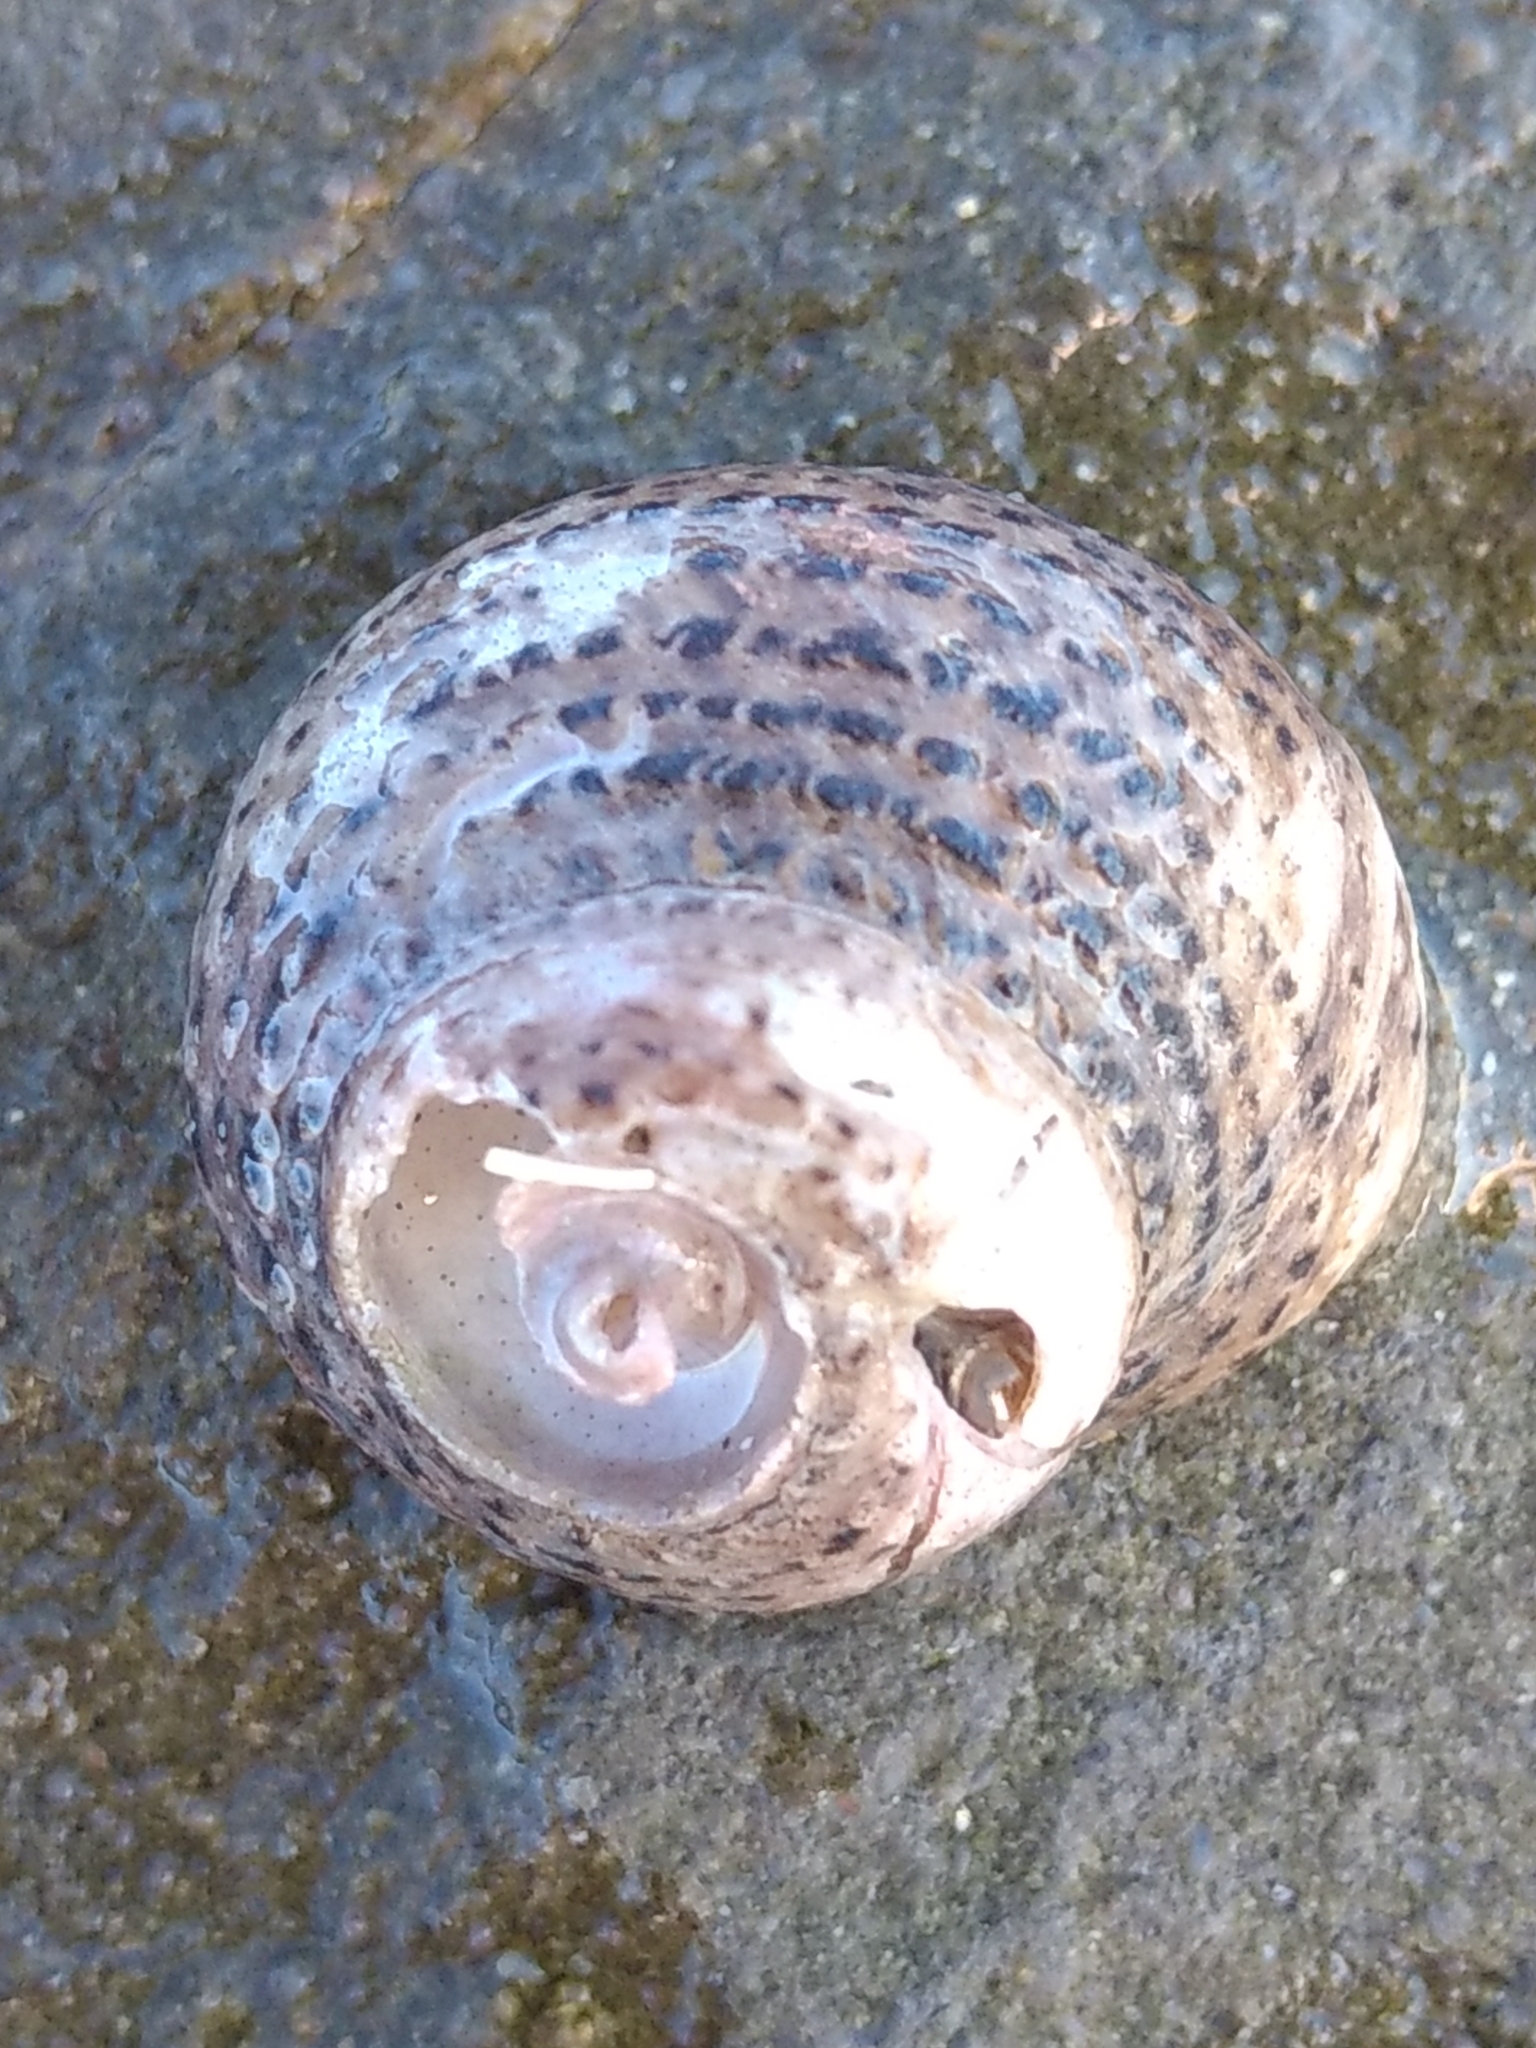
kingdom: Animalia
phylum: Mollusca
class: Gastropoda
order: Trochida
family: Tegulidae
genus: Tegula
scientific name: Tegula eiseni
